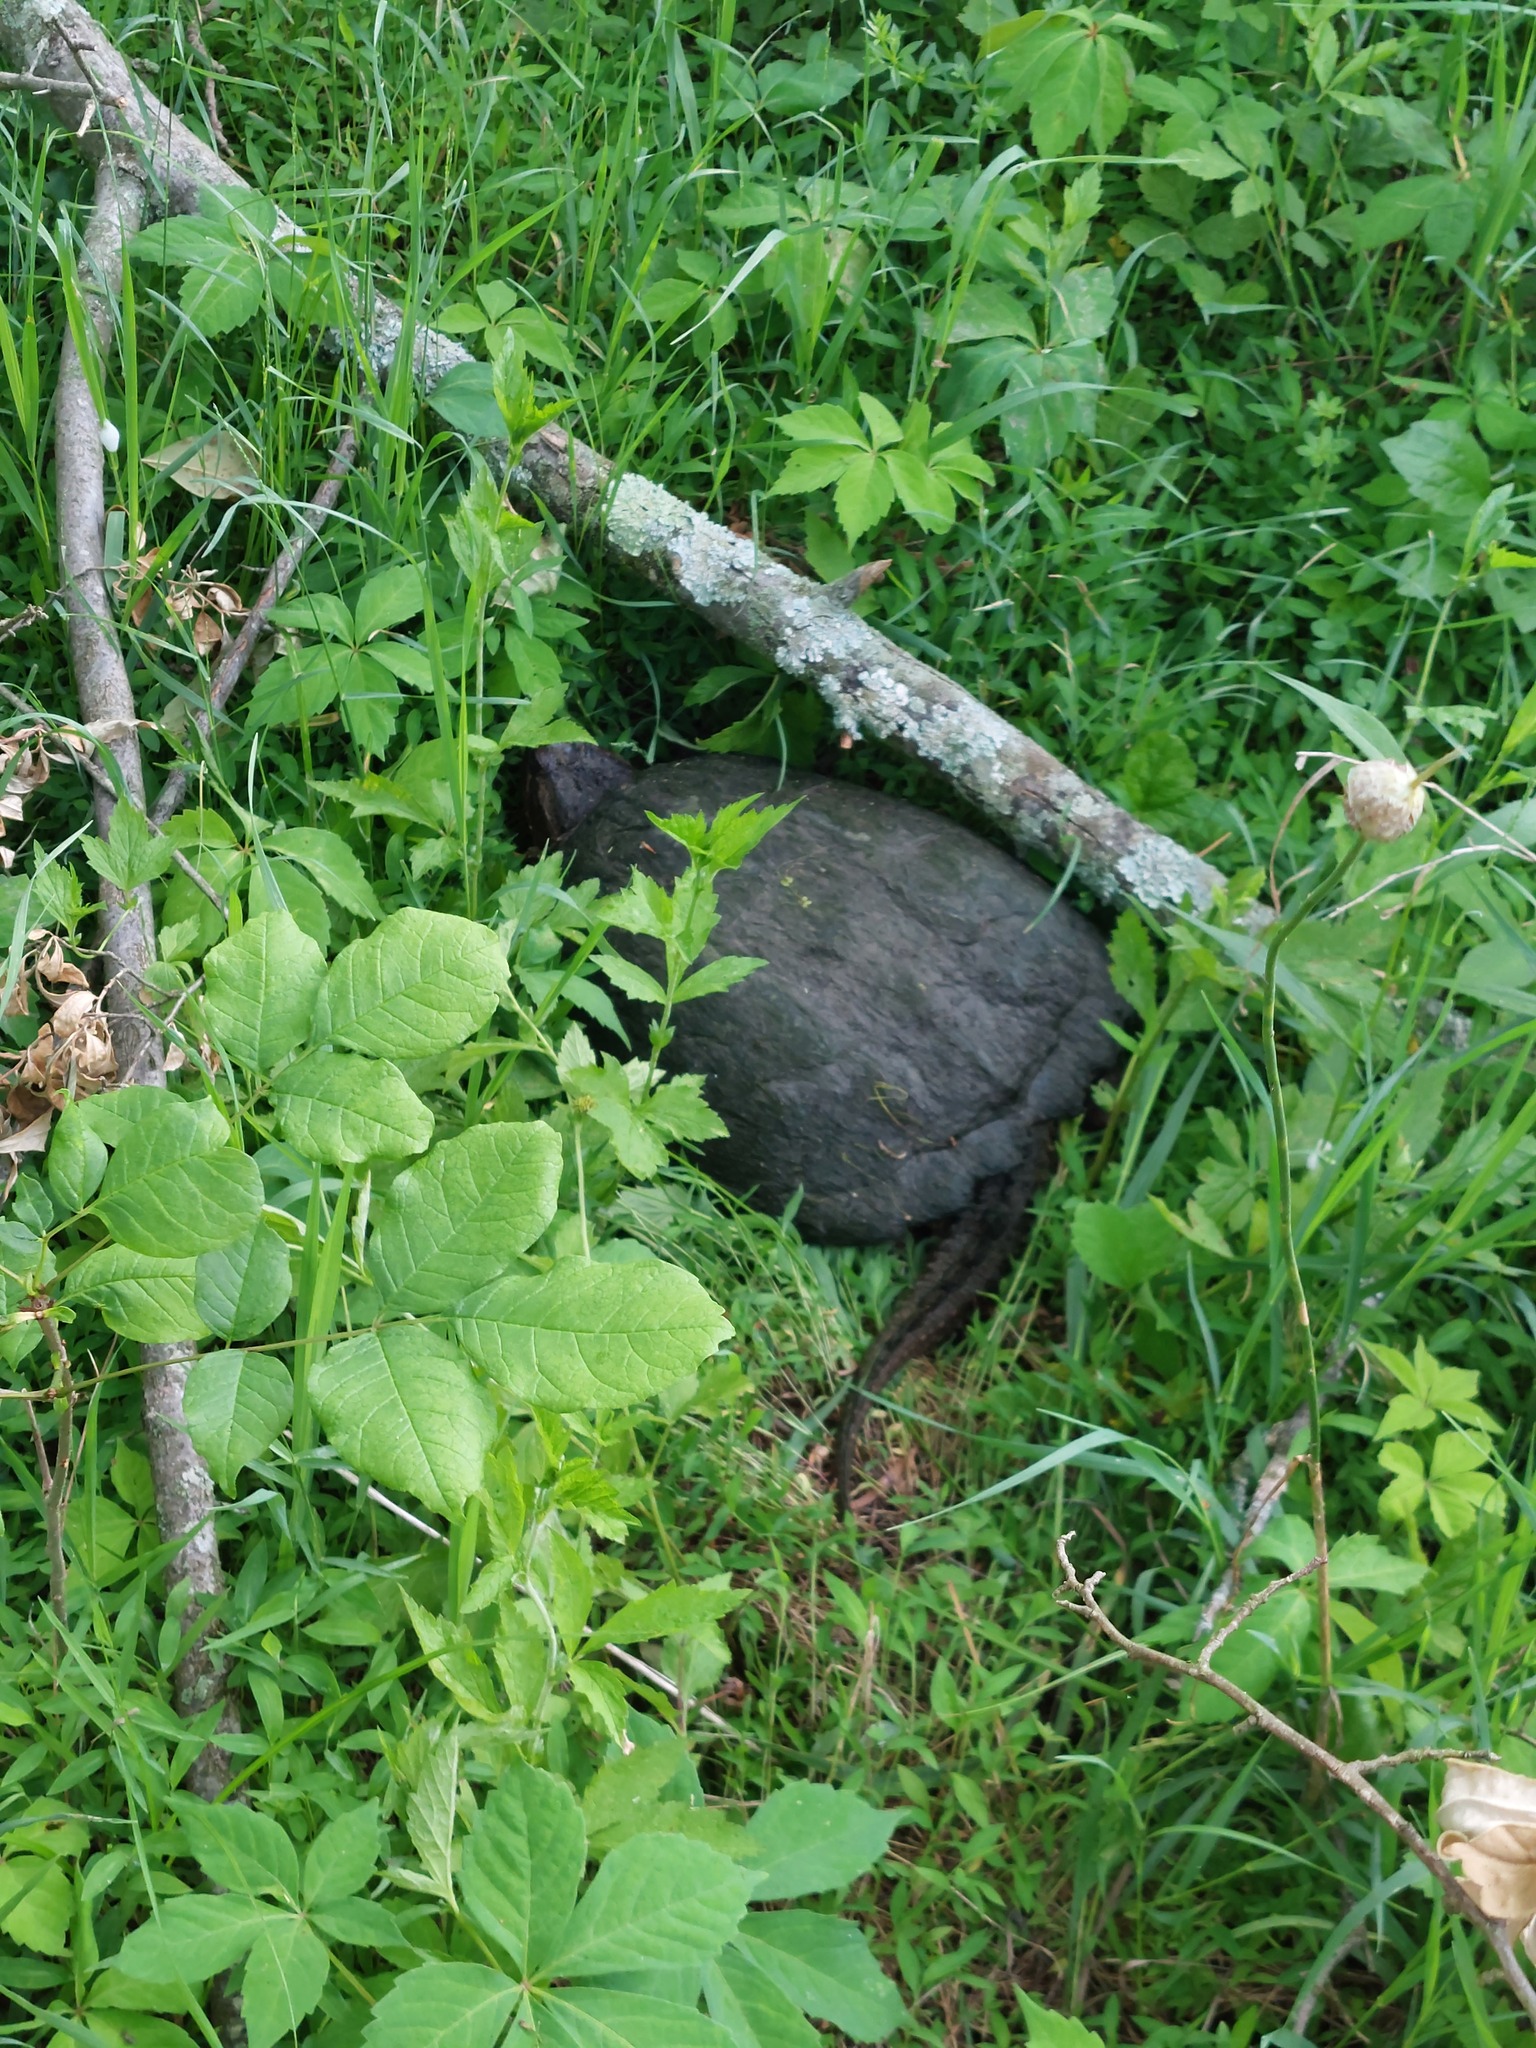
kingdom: Animalia
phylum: Chordata
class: Testudines
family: Chelydridae
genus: Chelydra
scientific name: Chelydra serpentina
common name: Common snapping turtle
